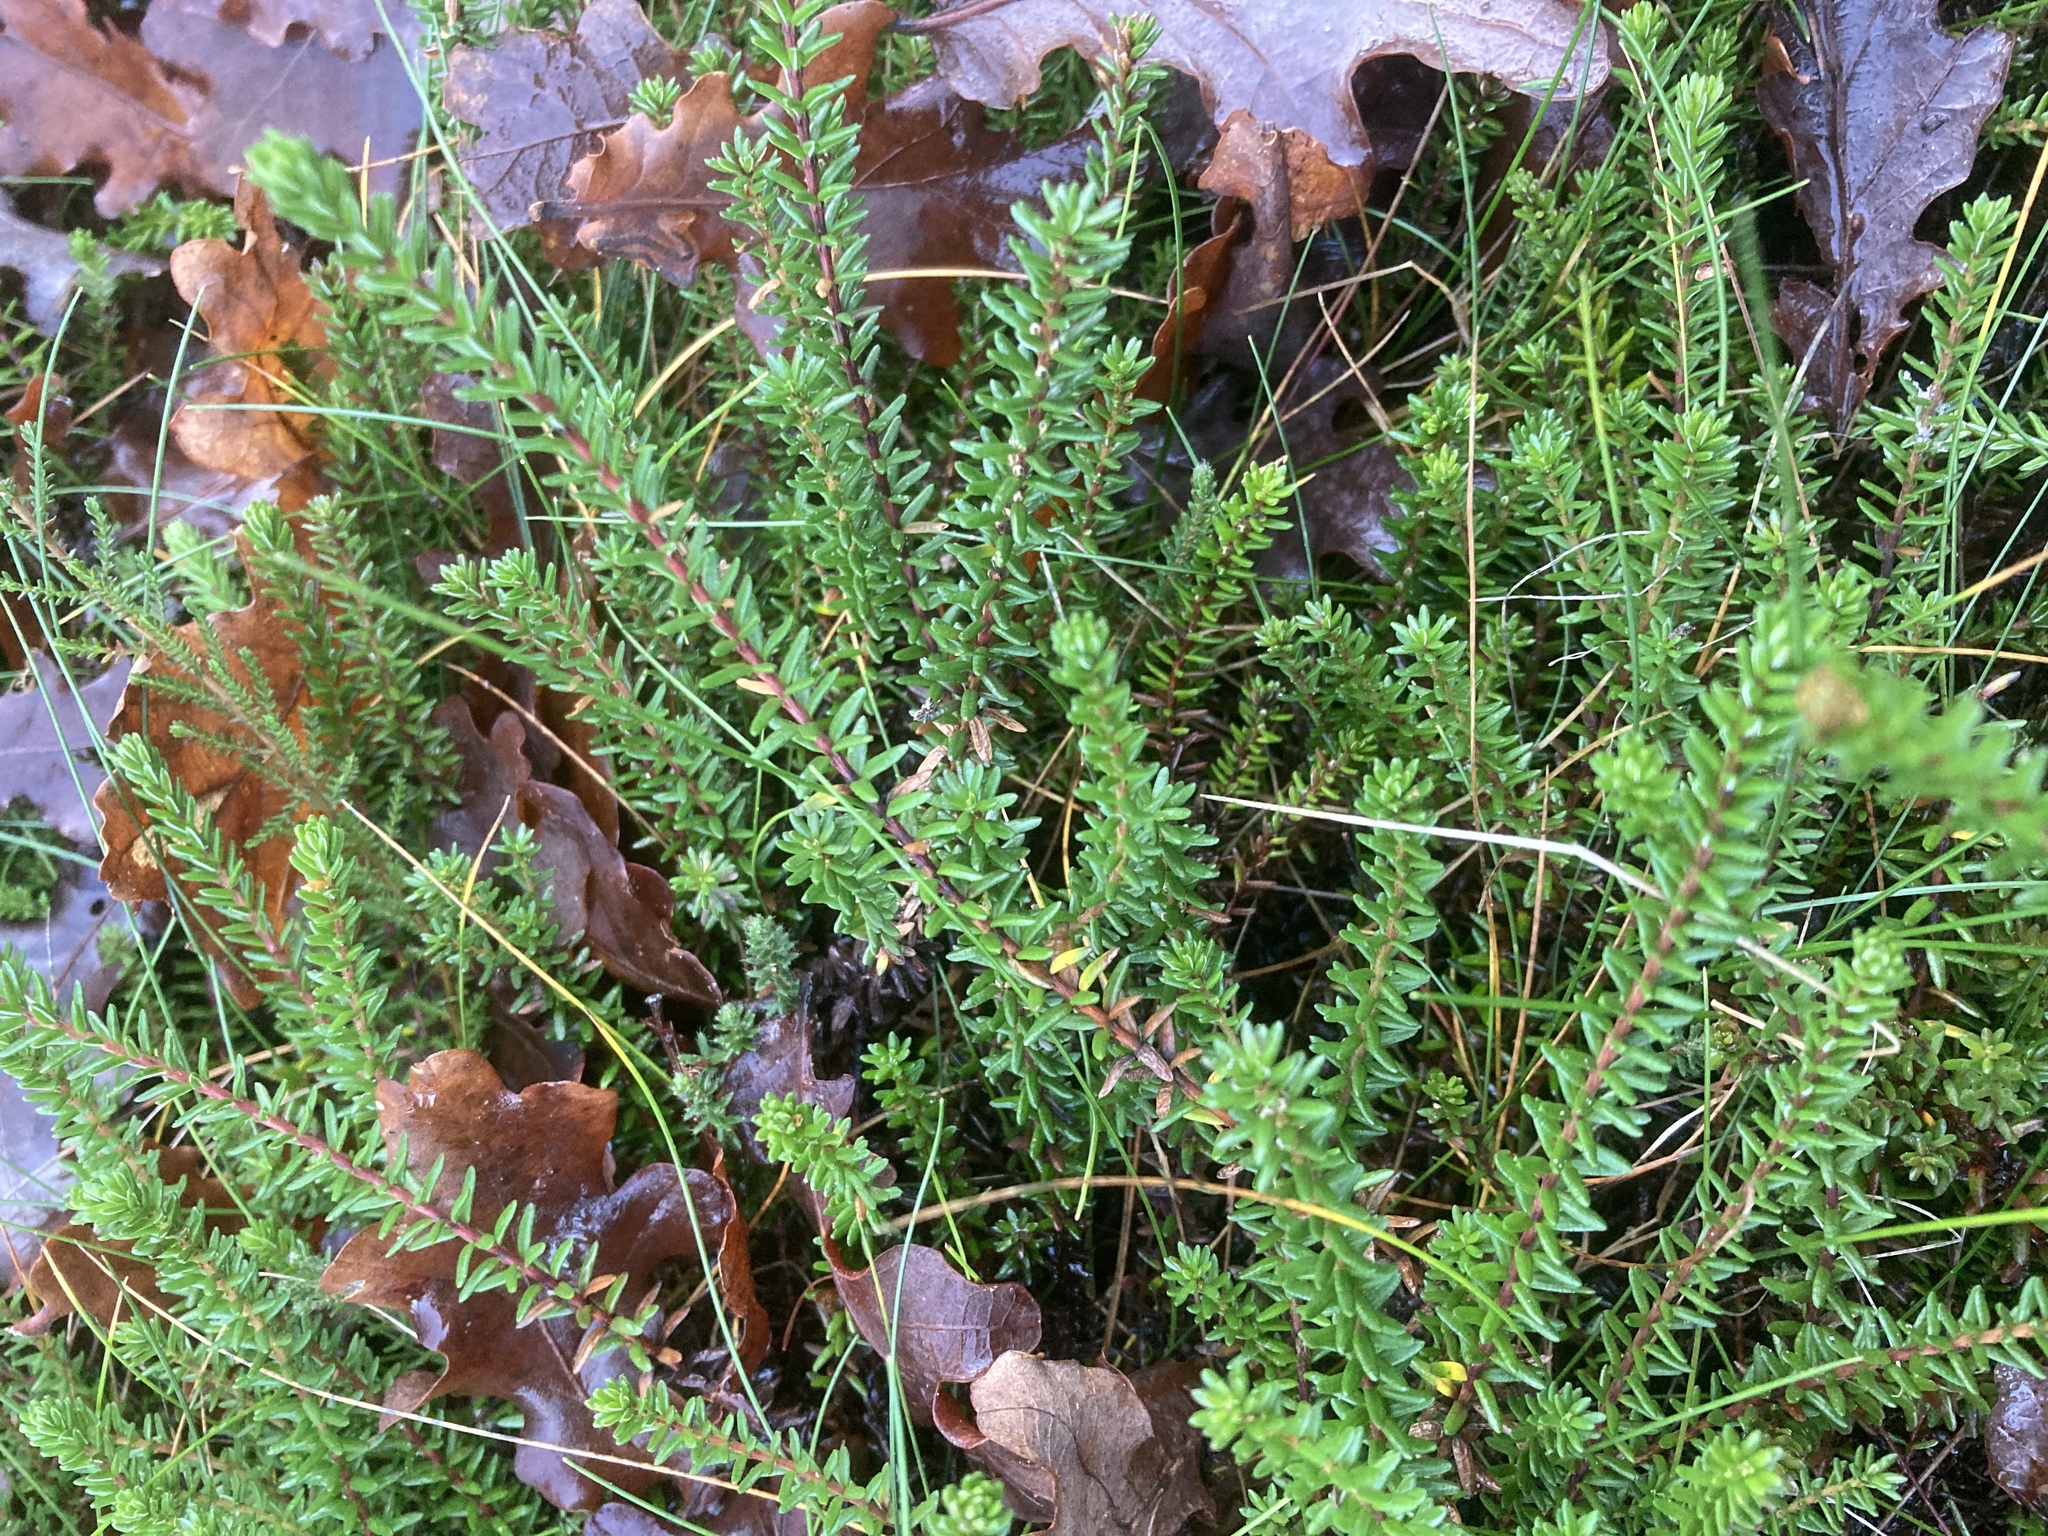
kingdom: Plantae
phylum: Tracheophyta
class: Magnoliopsida
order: Ericales
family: Ericaceae
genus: Empetrum
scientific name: Empetrum nigrum
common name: Black crowberry
